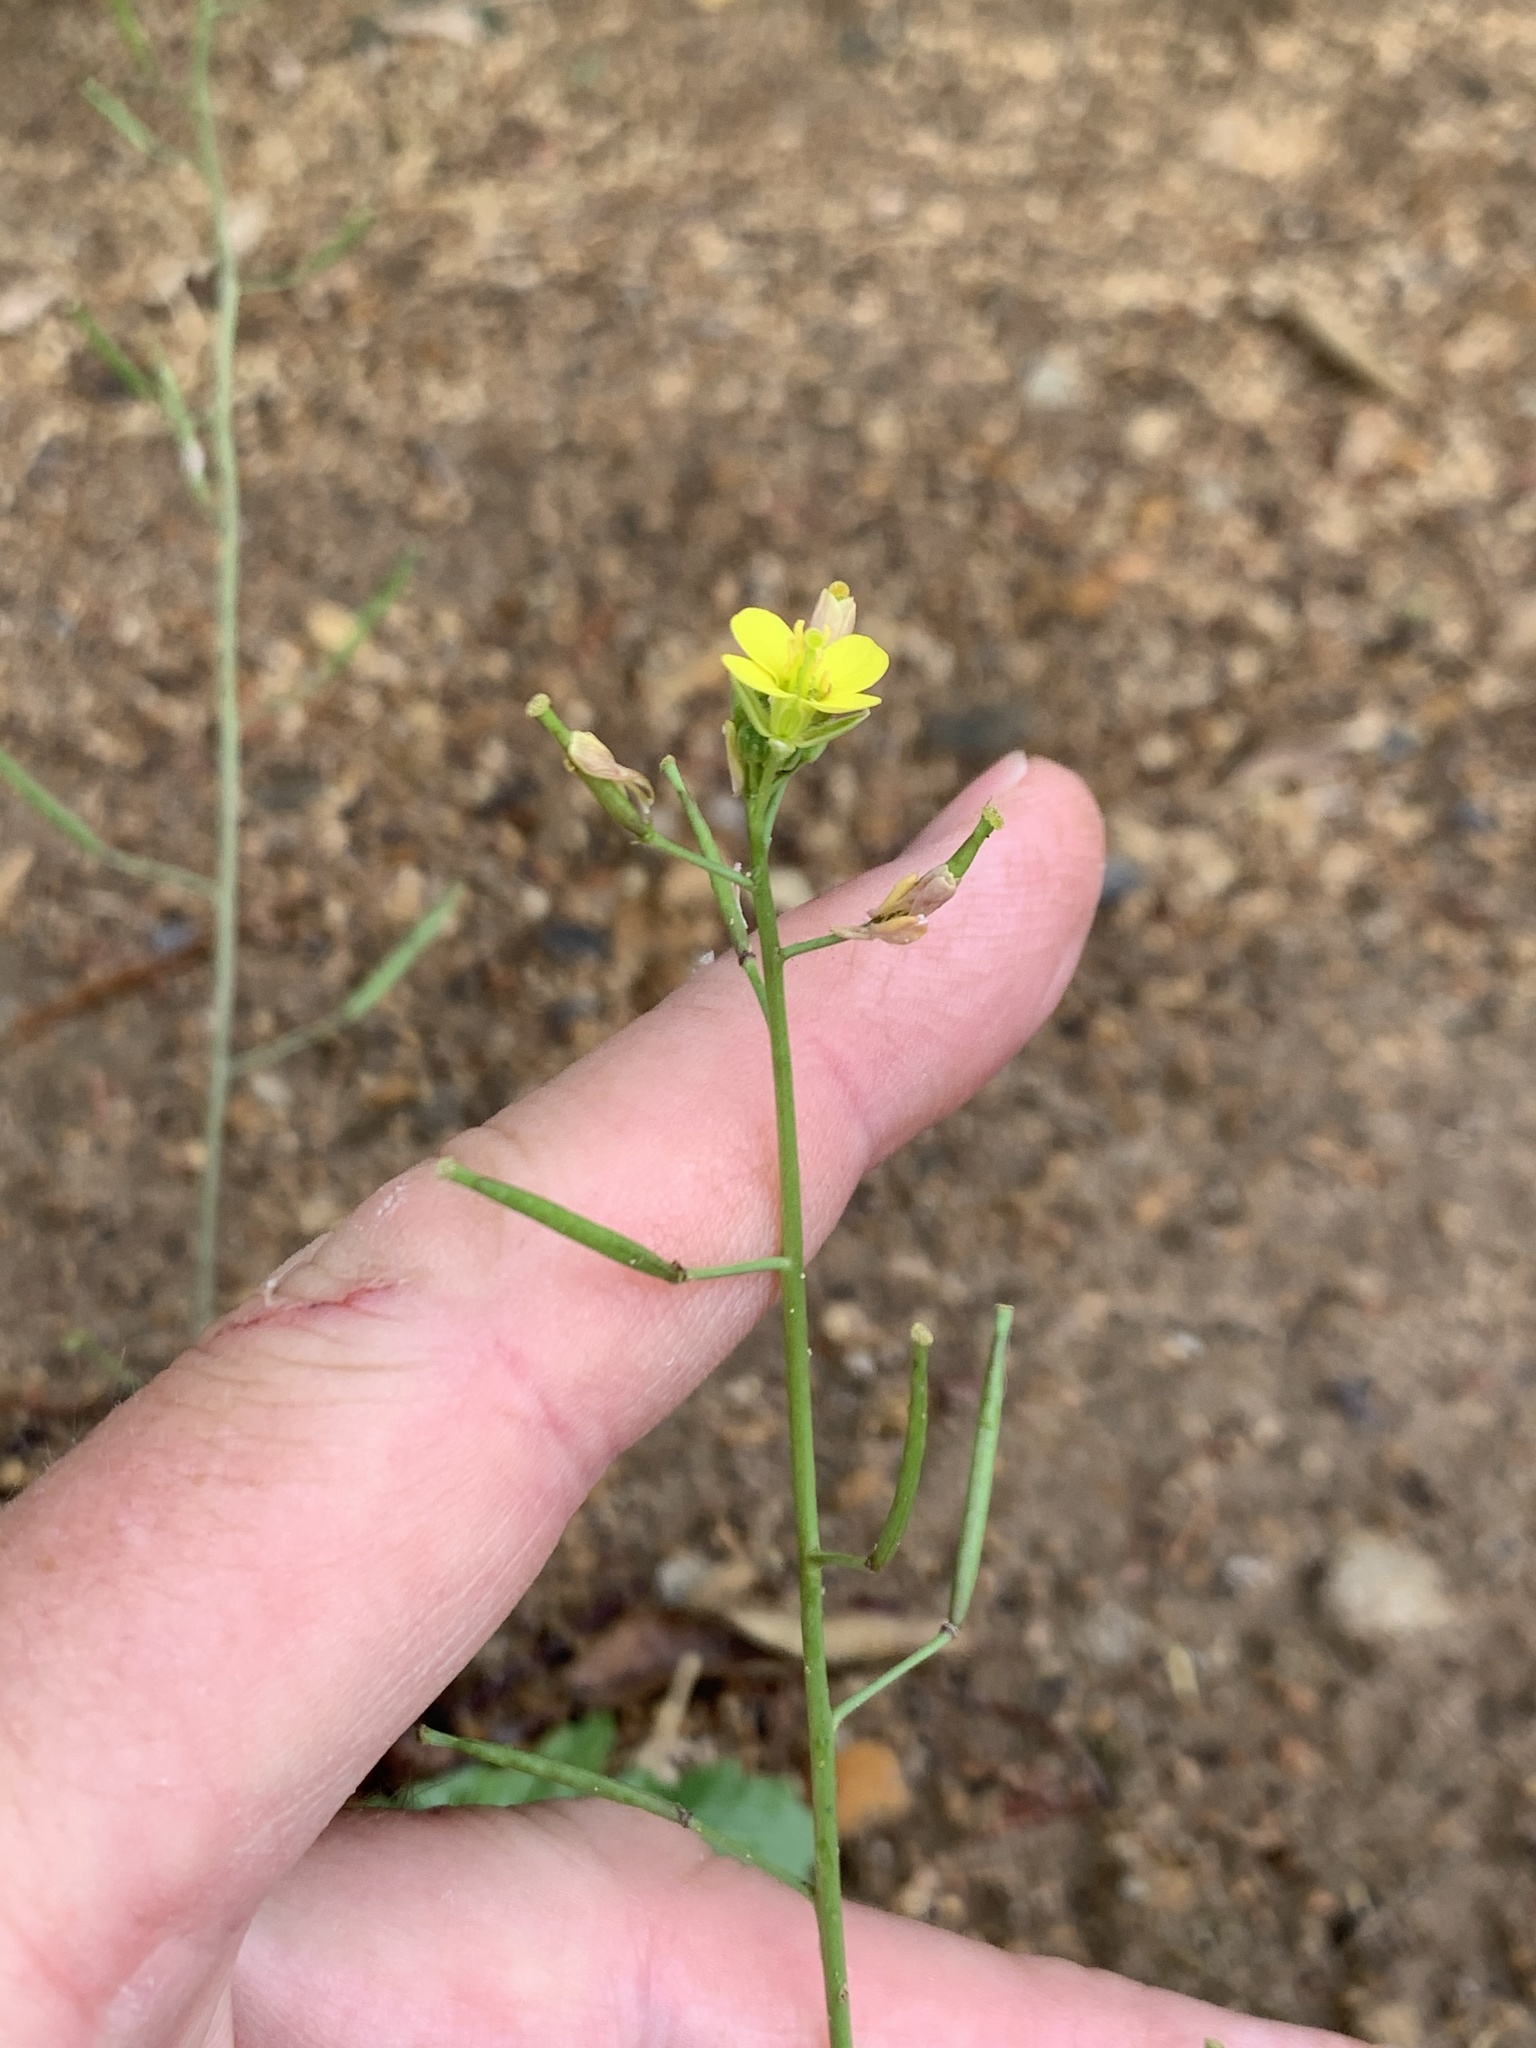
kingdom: Plantae
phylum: Tracheophyta
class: Magnoliopsida
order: Brassicales
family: Brassicaceae
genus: Diplotaxis
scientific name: Diplotaxis muralis
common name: Annual wall-rocket
